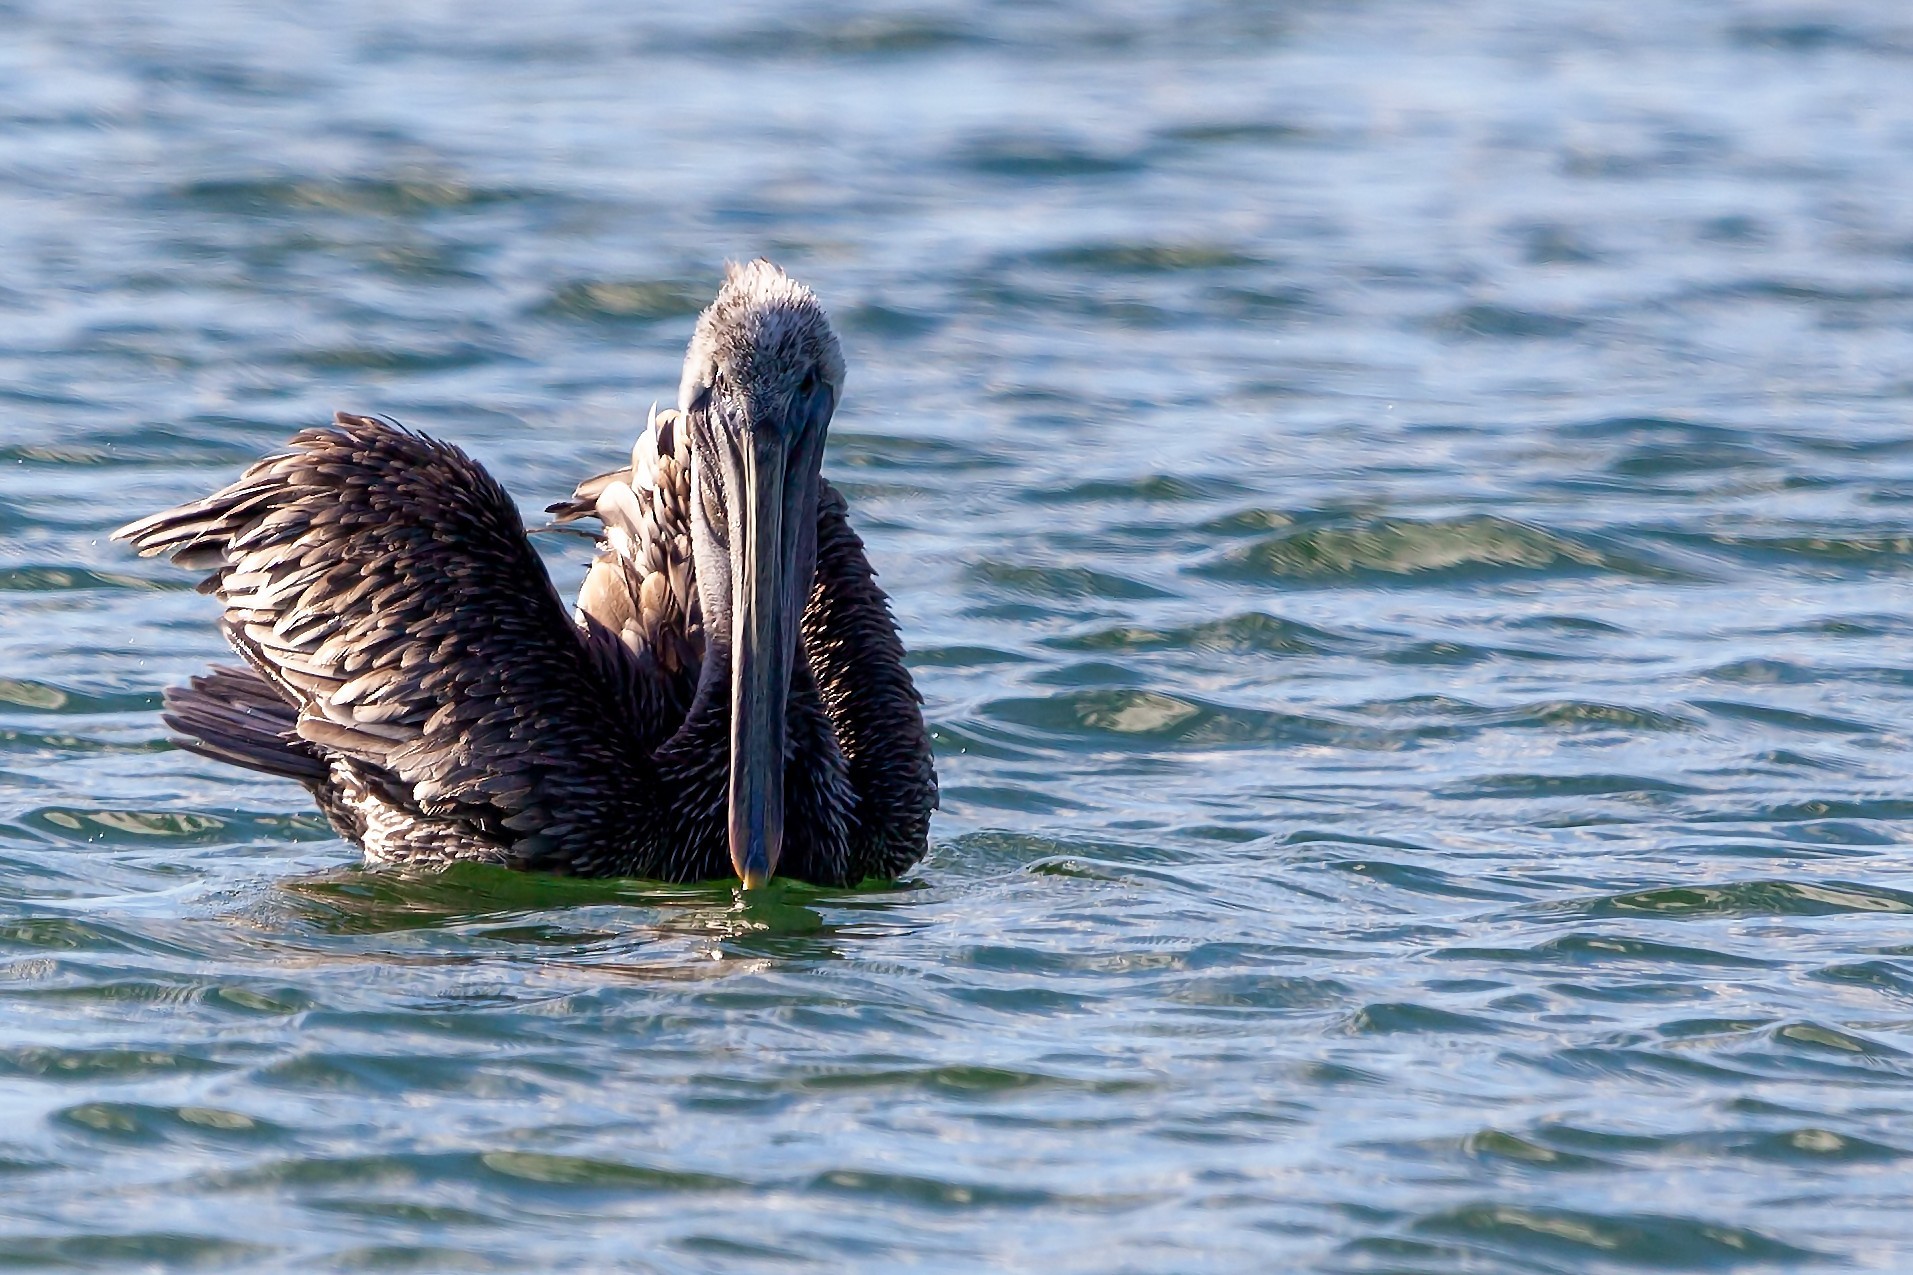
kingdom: Animalia
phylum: Chordata
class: Aves
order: Pelecaniformes
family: Pelecanidae
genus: Pelecanus
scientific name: Pelecanus occidentalis
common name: Brown pelican
